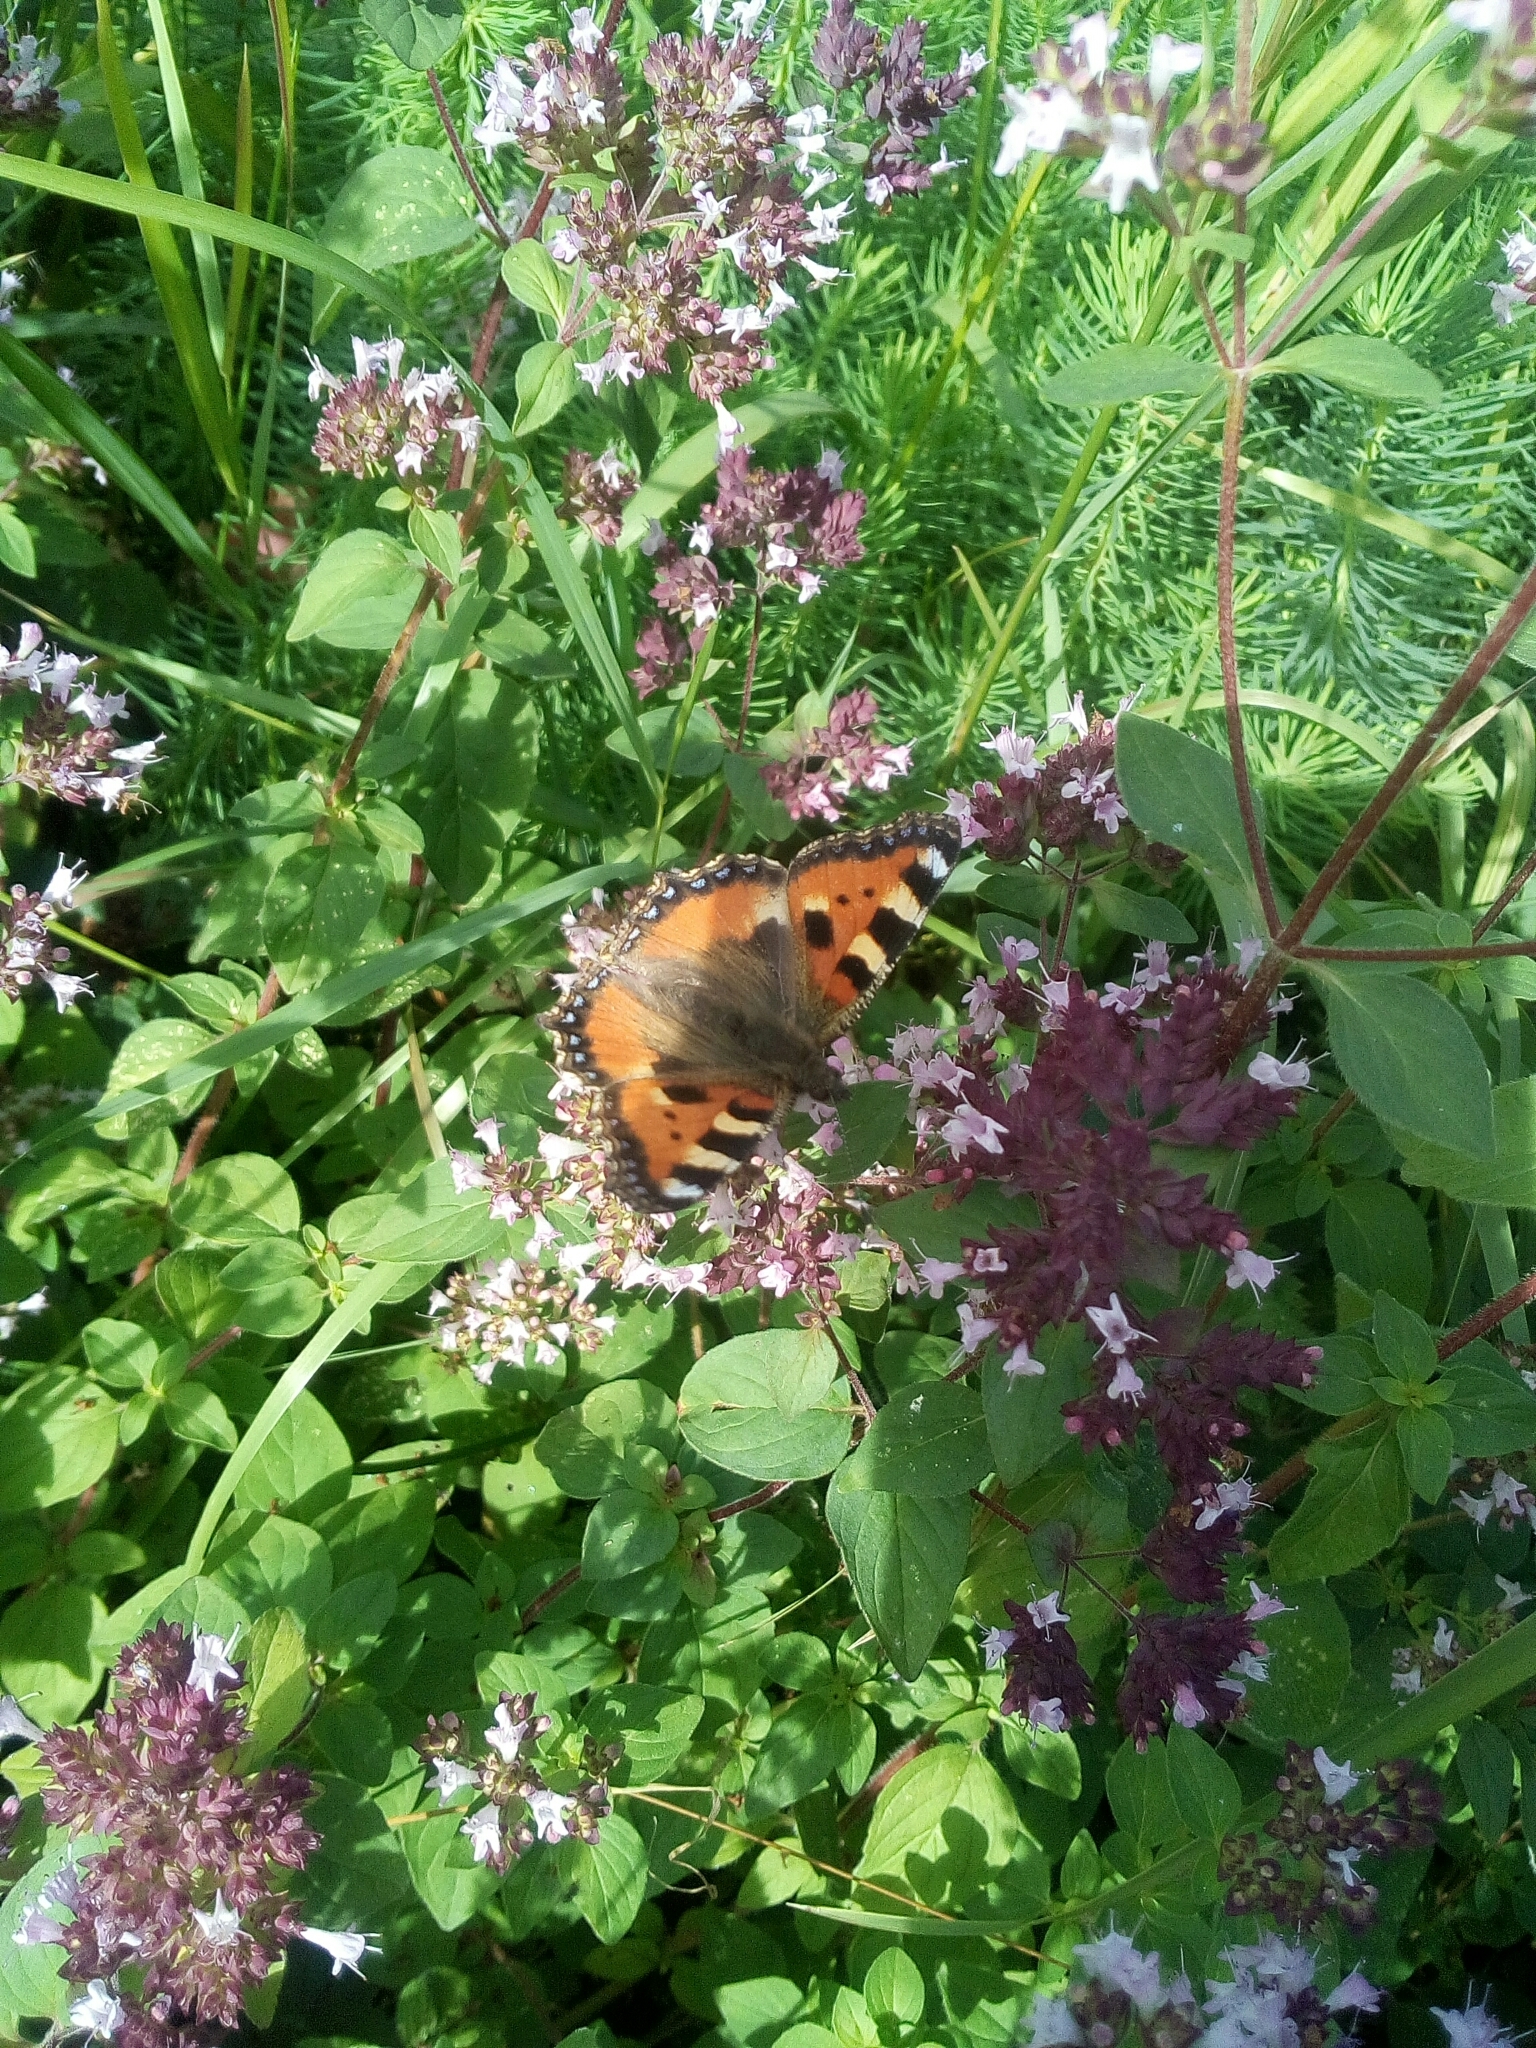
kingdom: Animalia
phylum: Arthropoda
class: Insecta
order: Lepidoptera
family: Nymphalidae
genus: Aglais
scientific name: Aglais urticae
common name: Small tortoiseshell
